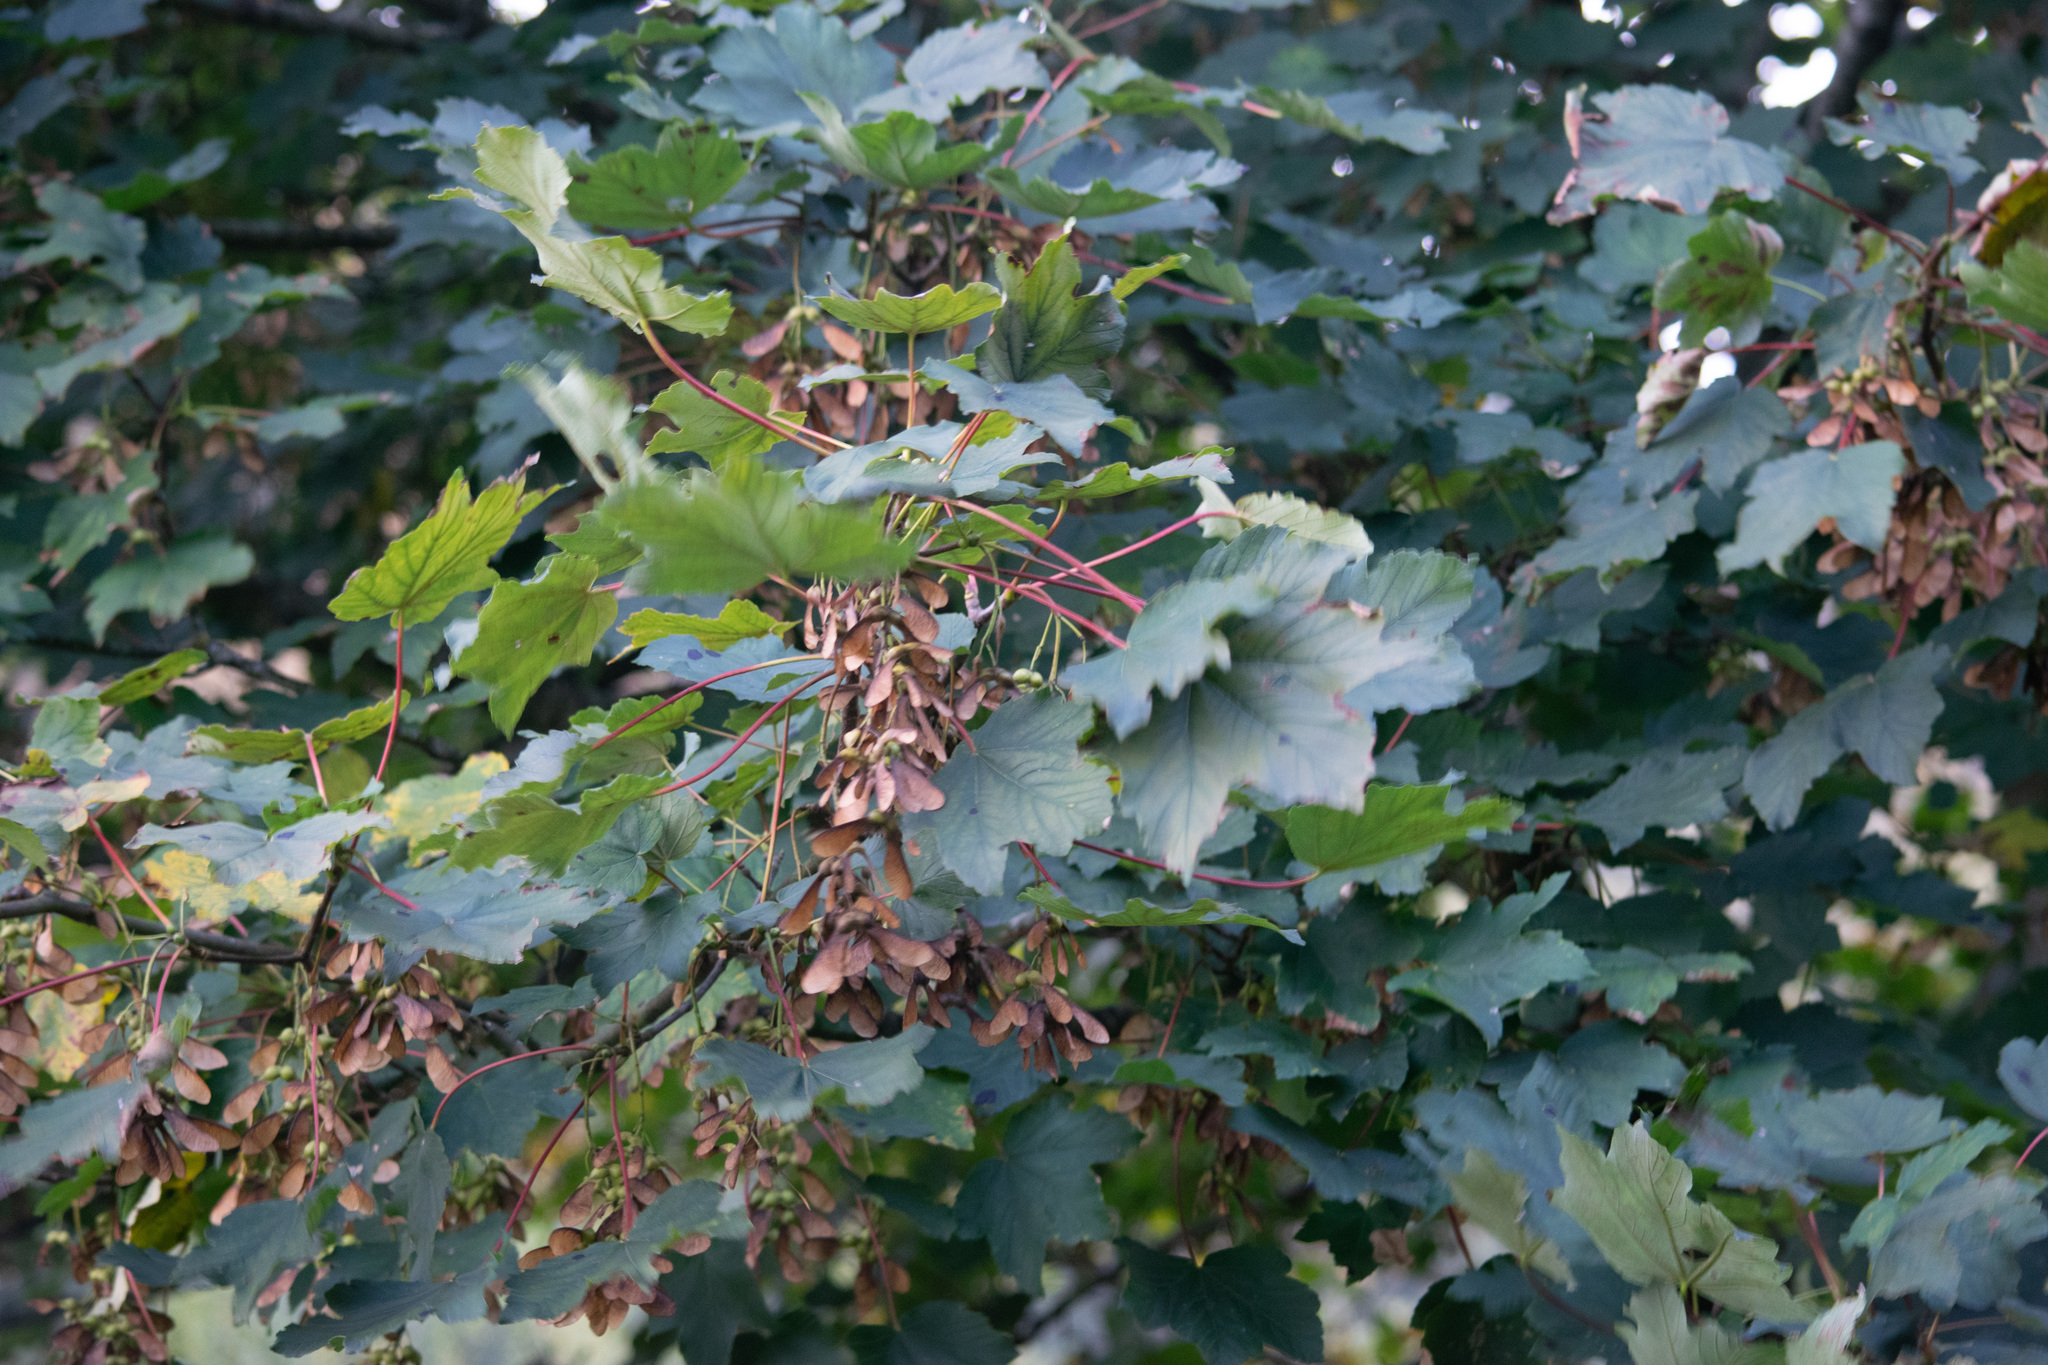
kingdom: Plantae
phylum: Tracheophyta
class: Magnoliopsida
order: Sapindales
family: Sapindaceae
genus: Acer
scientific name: Acer pseudoplatanus
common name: Sycamore
